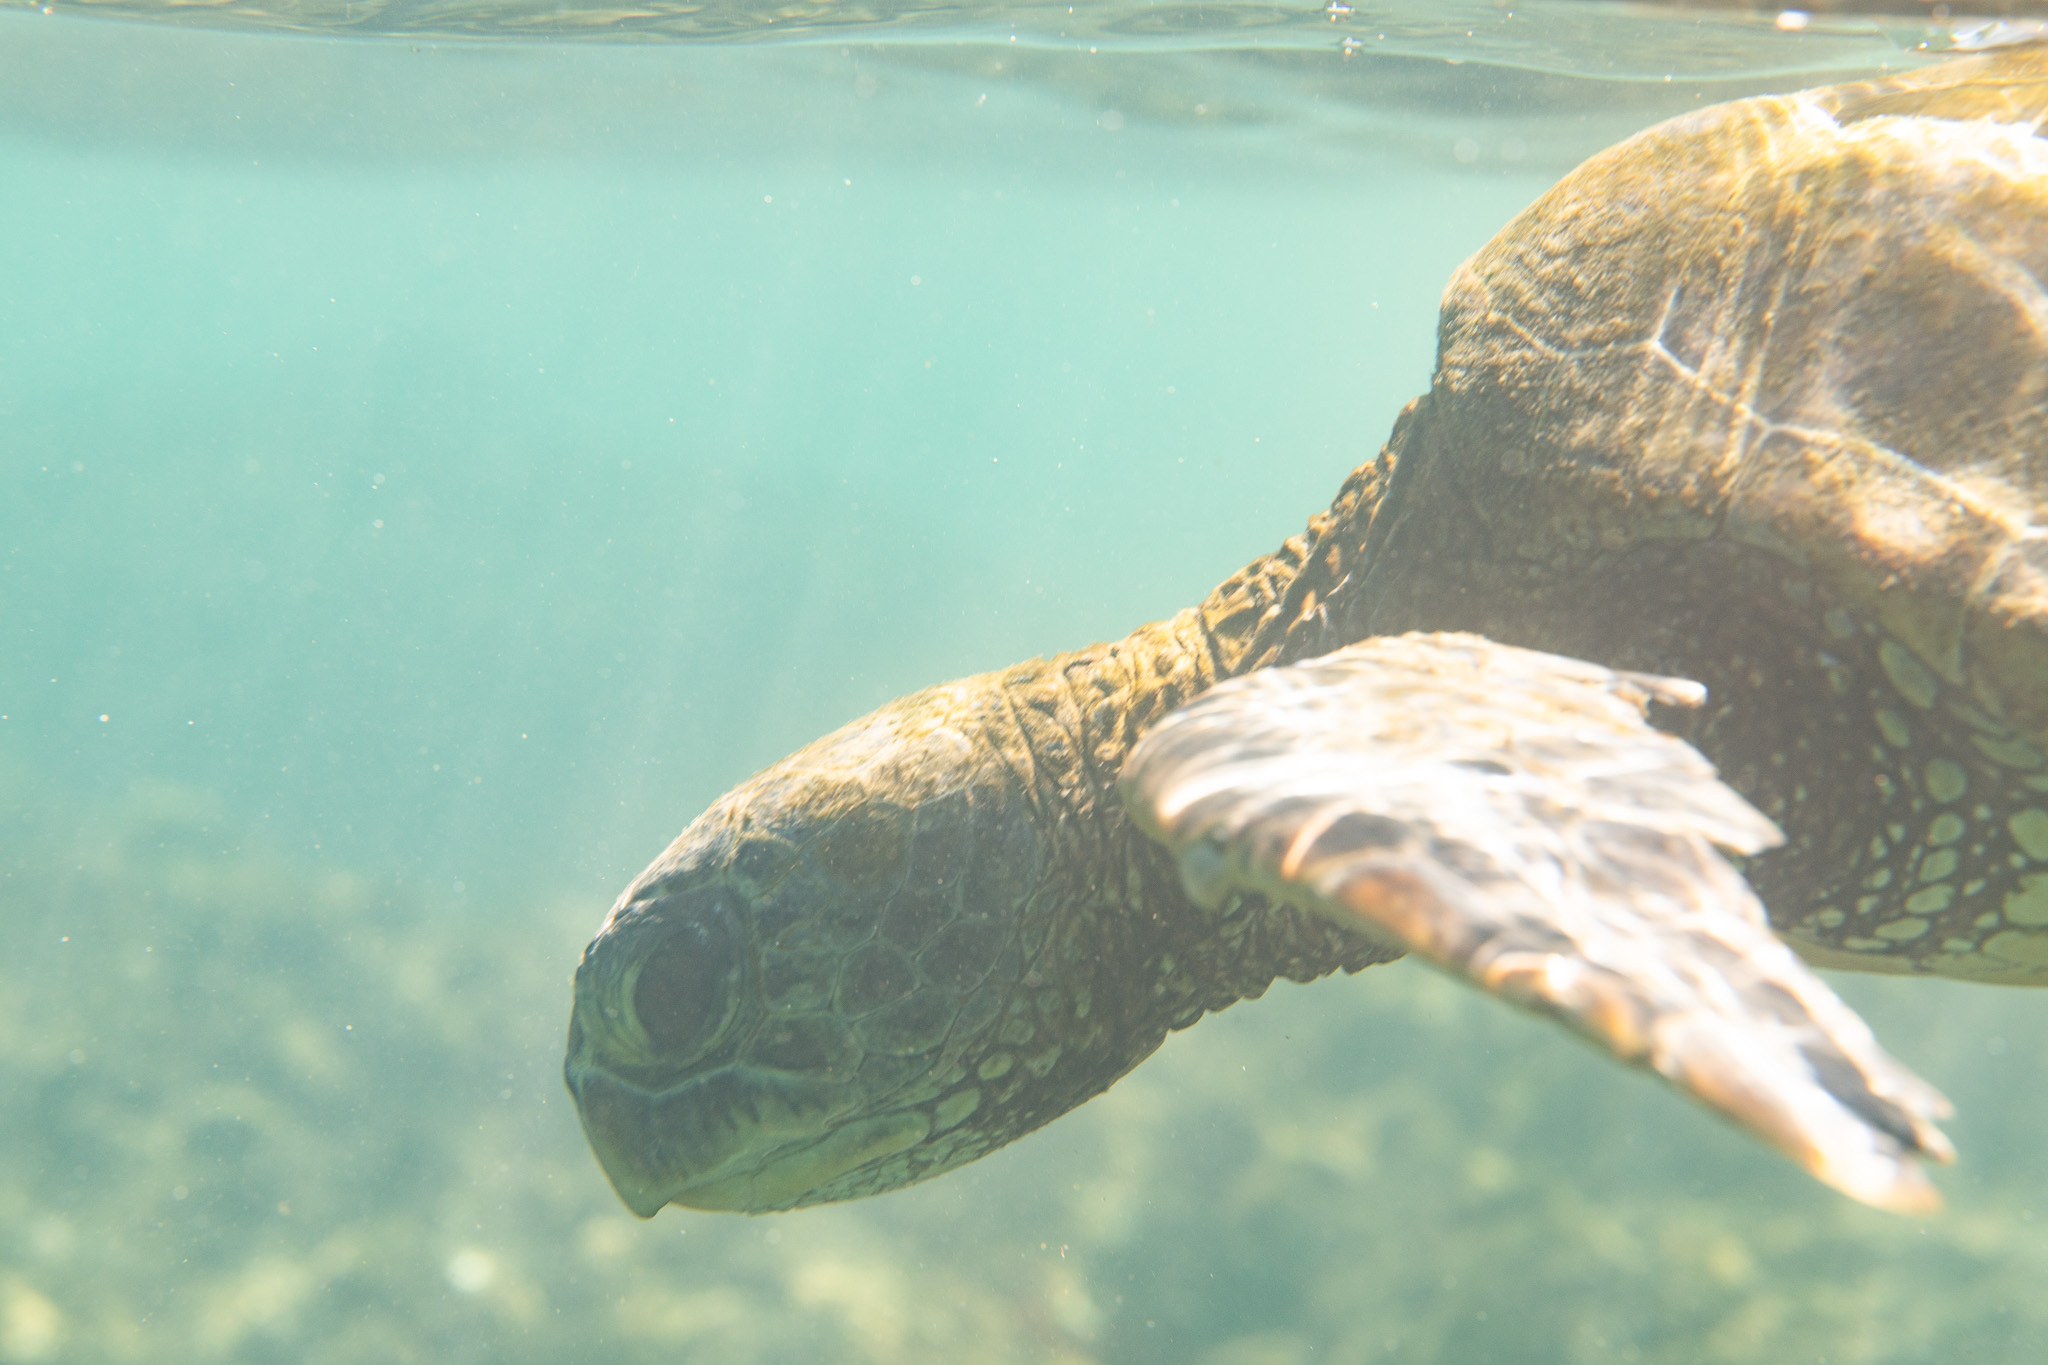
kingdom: Animalia
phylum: Chordata
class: Testudines
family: Cheloniidae
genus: Chelonia
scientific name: Chelonia mydas
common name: Green turtle
